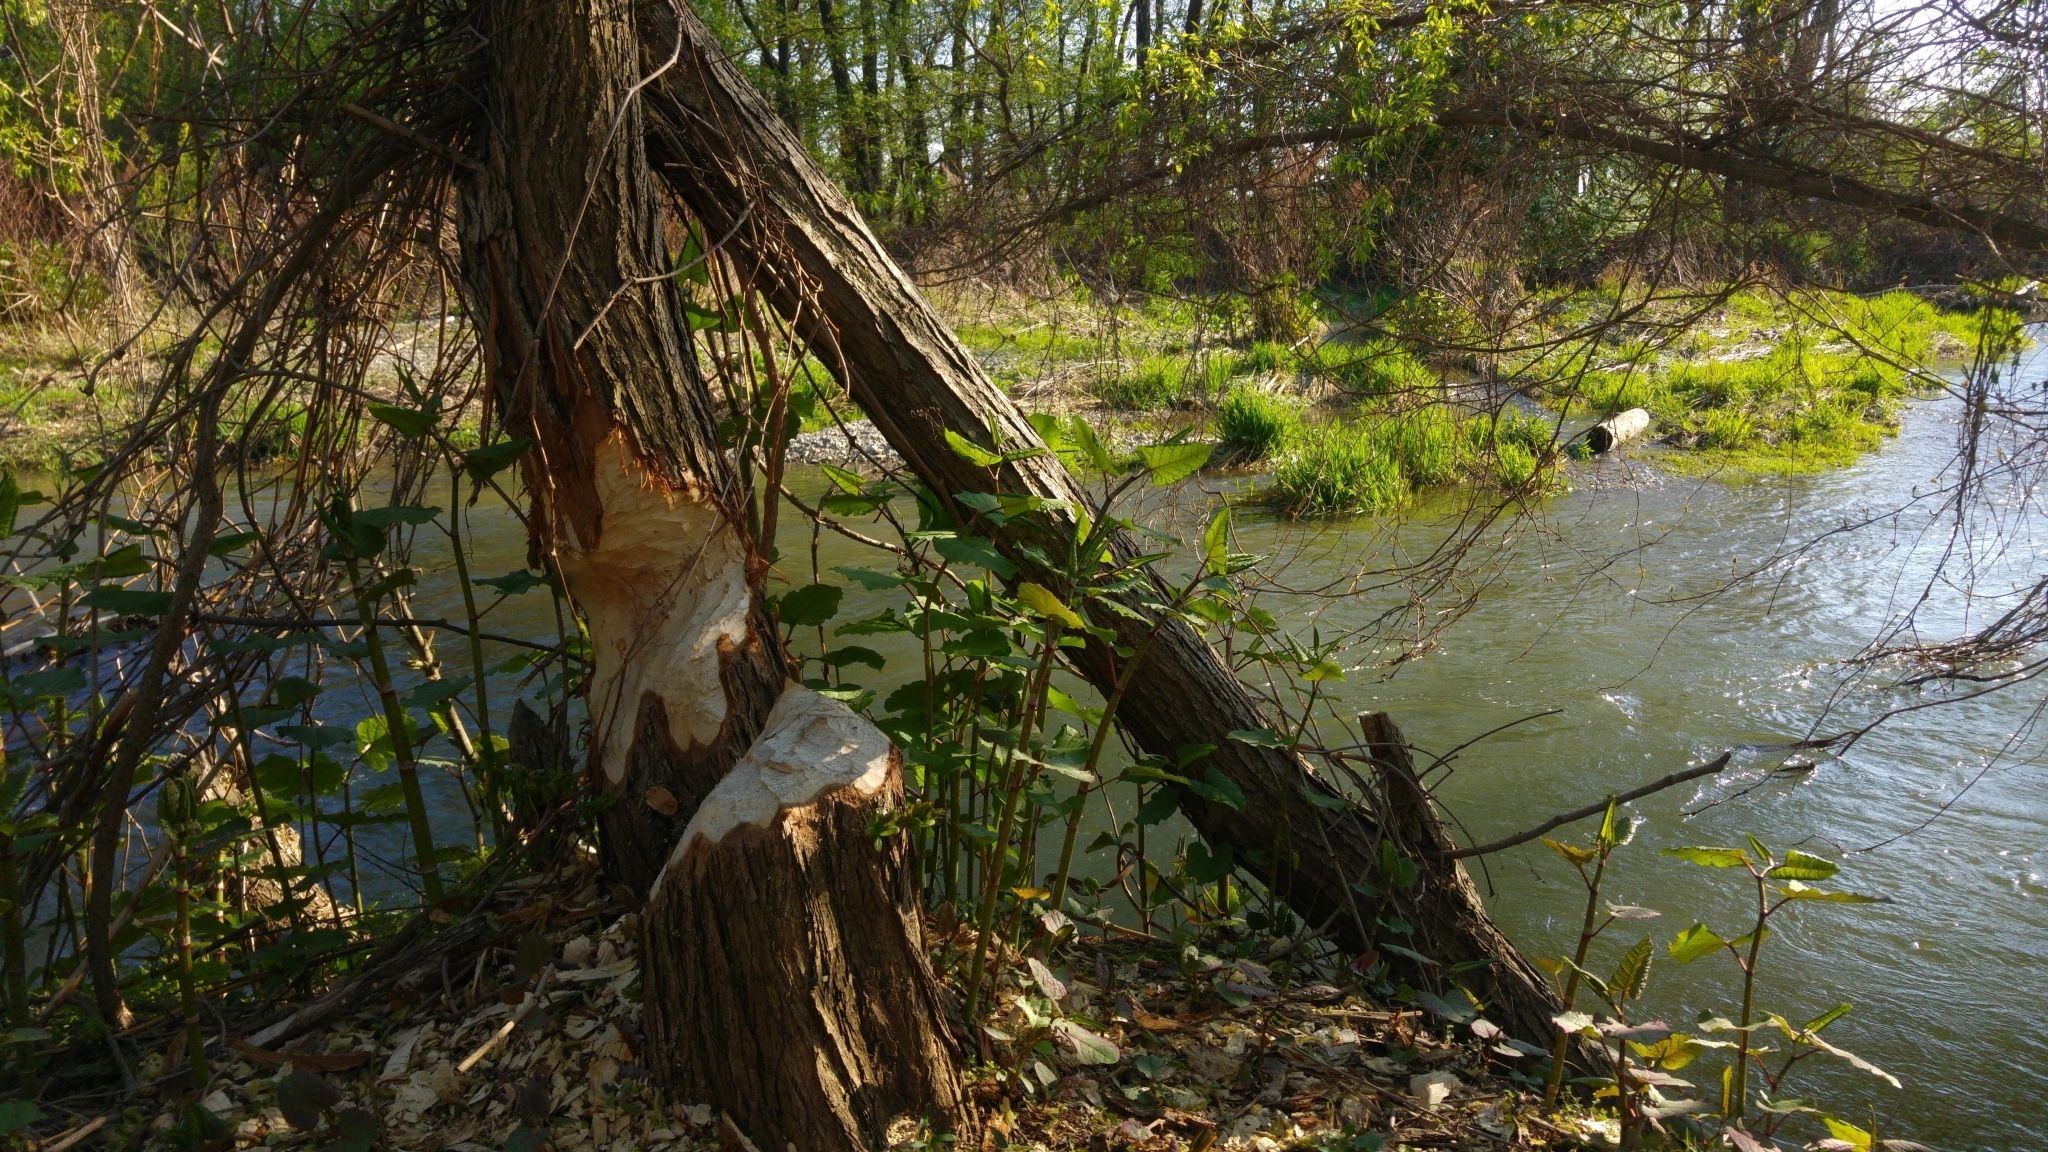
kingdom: Animalia
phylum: Chordata
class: Mammalia
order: Rodentia
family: Castoridae
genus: Castor
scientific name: Castor fiber
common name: Eurasian beaver
